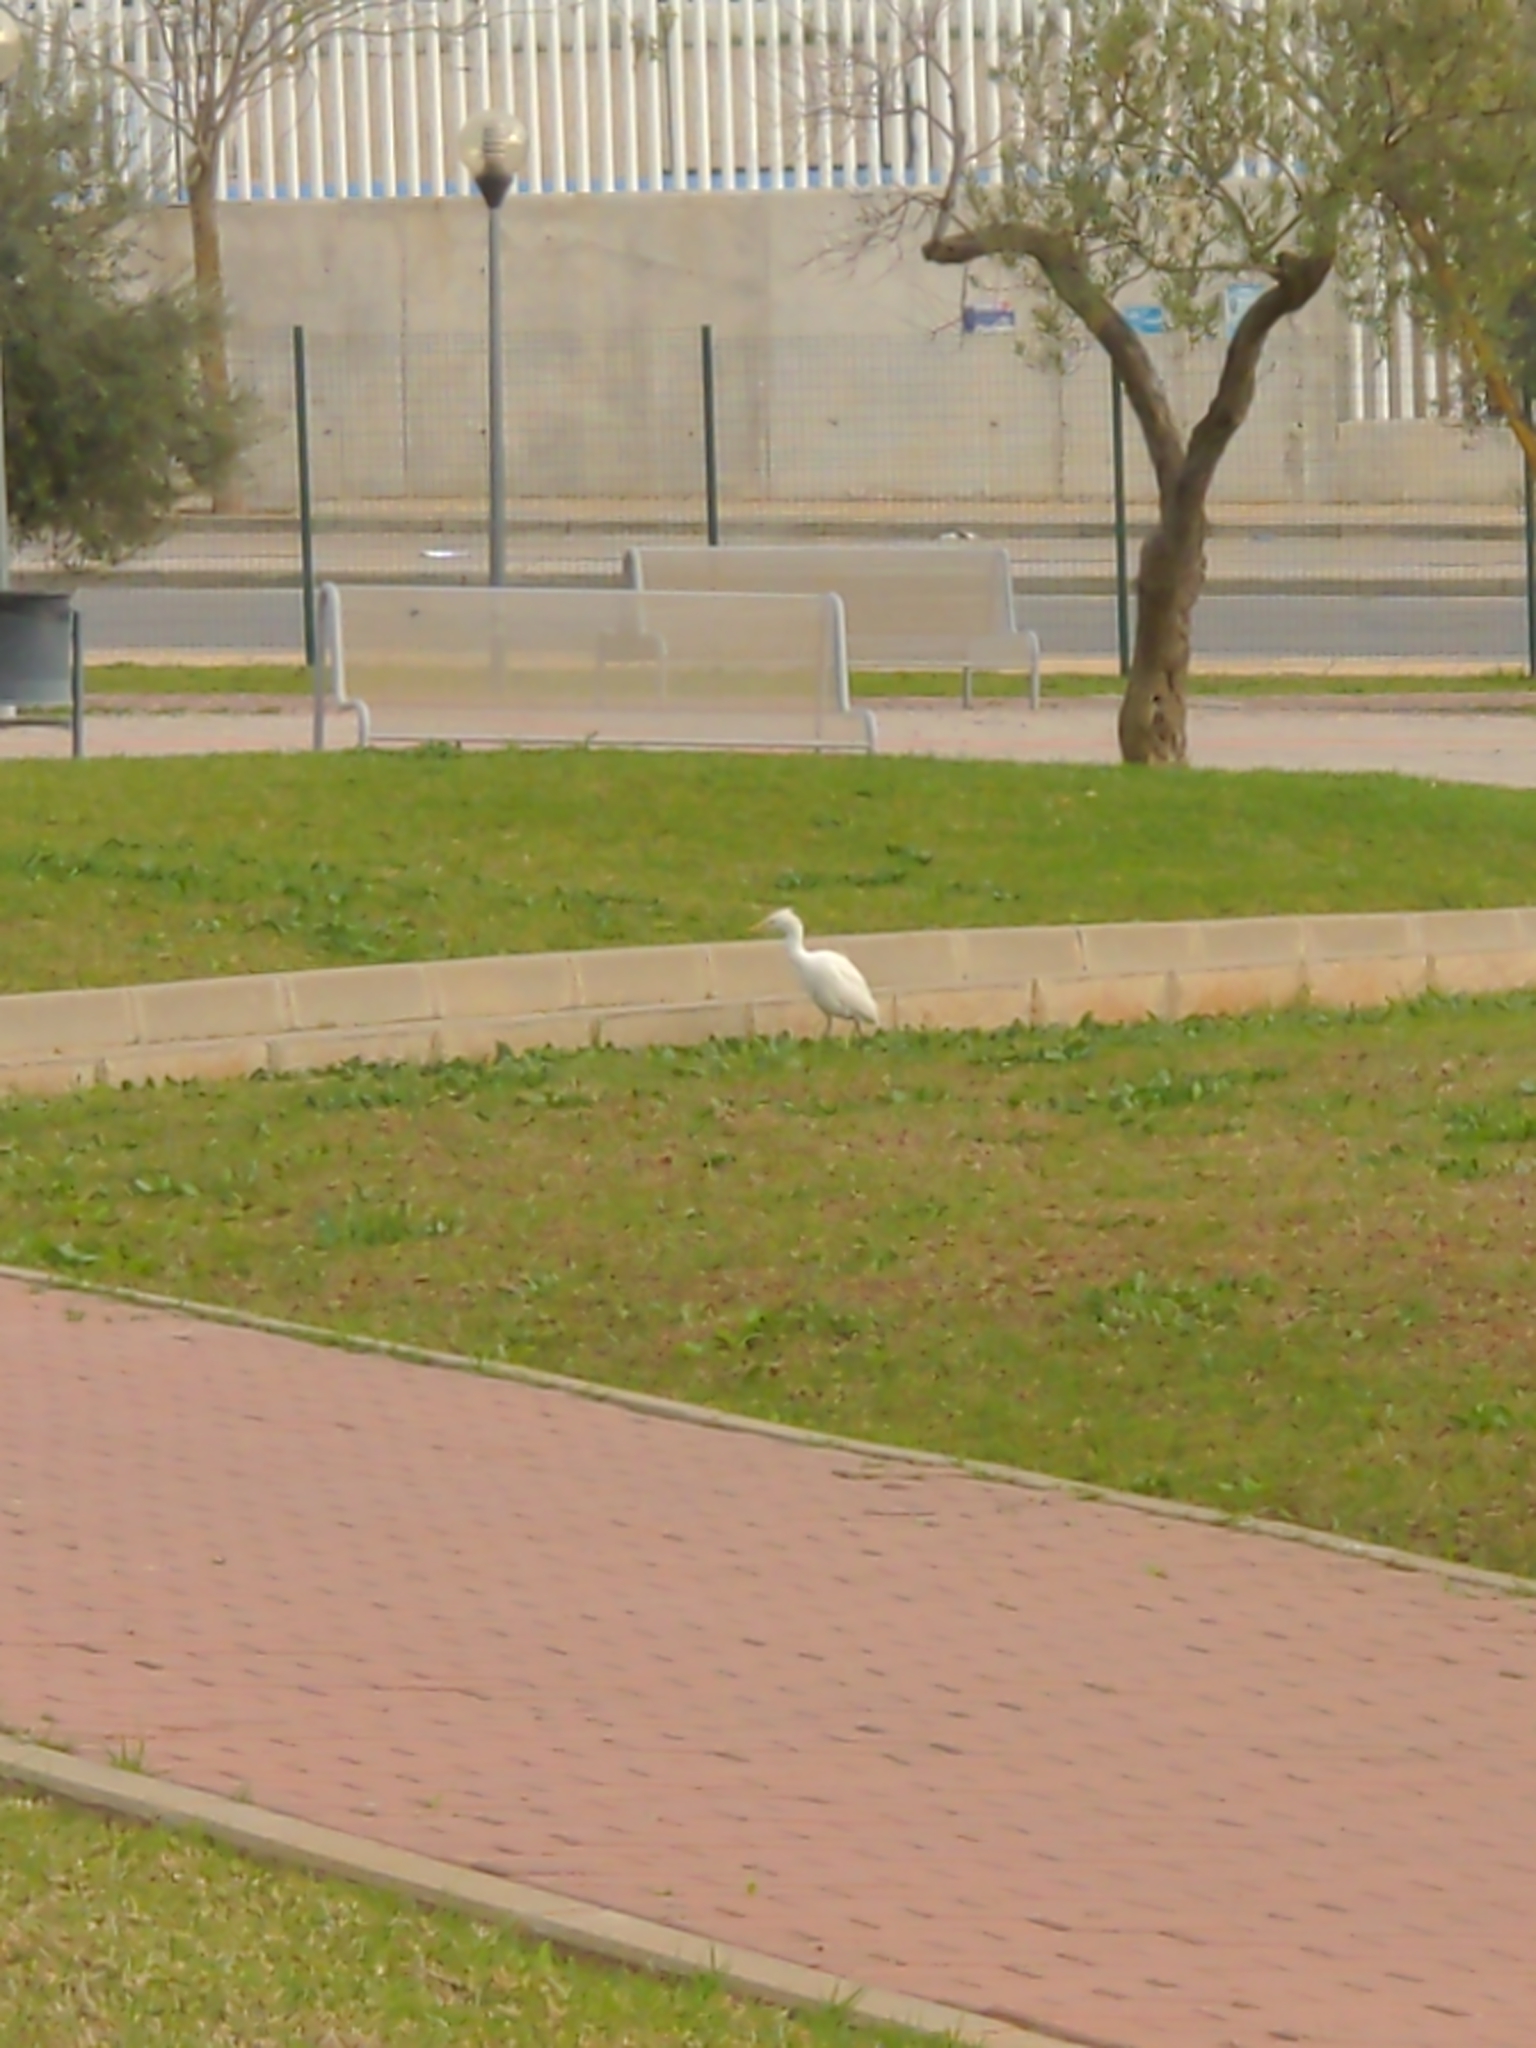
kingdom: Animalia
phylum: Chordata
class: Aves
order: Pelecaniformes
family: Ardeidae
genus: Bubulcus
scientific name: Bubulcus ibis
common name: Cattle egret
